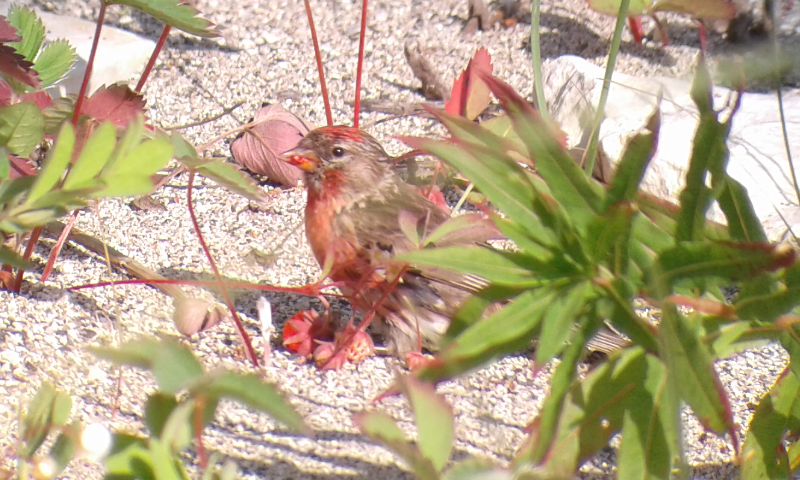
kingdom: Animalia
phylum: Chordata
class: Aves
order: Passeriformes
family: Fringillidae
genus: Acanthis
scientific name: Acanthis flammea
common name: Common redpoll
